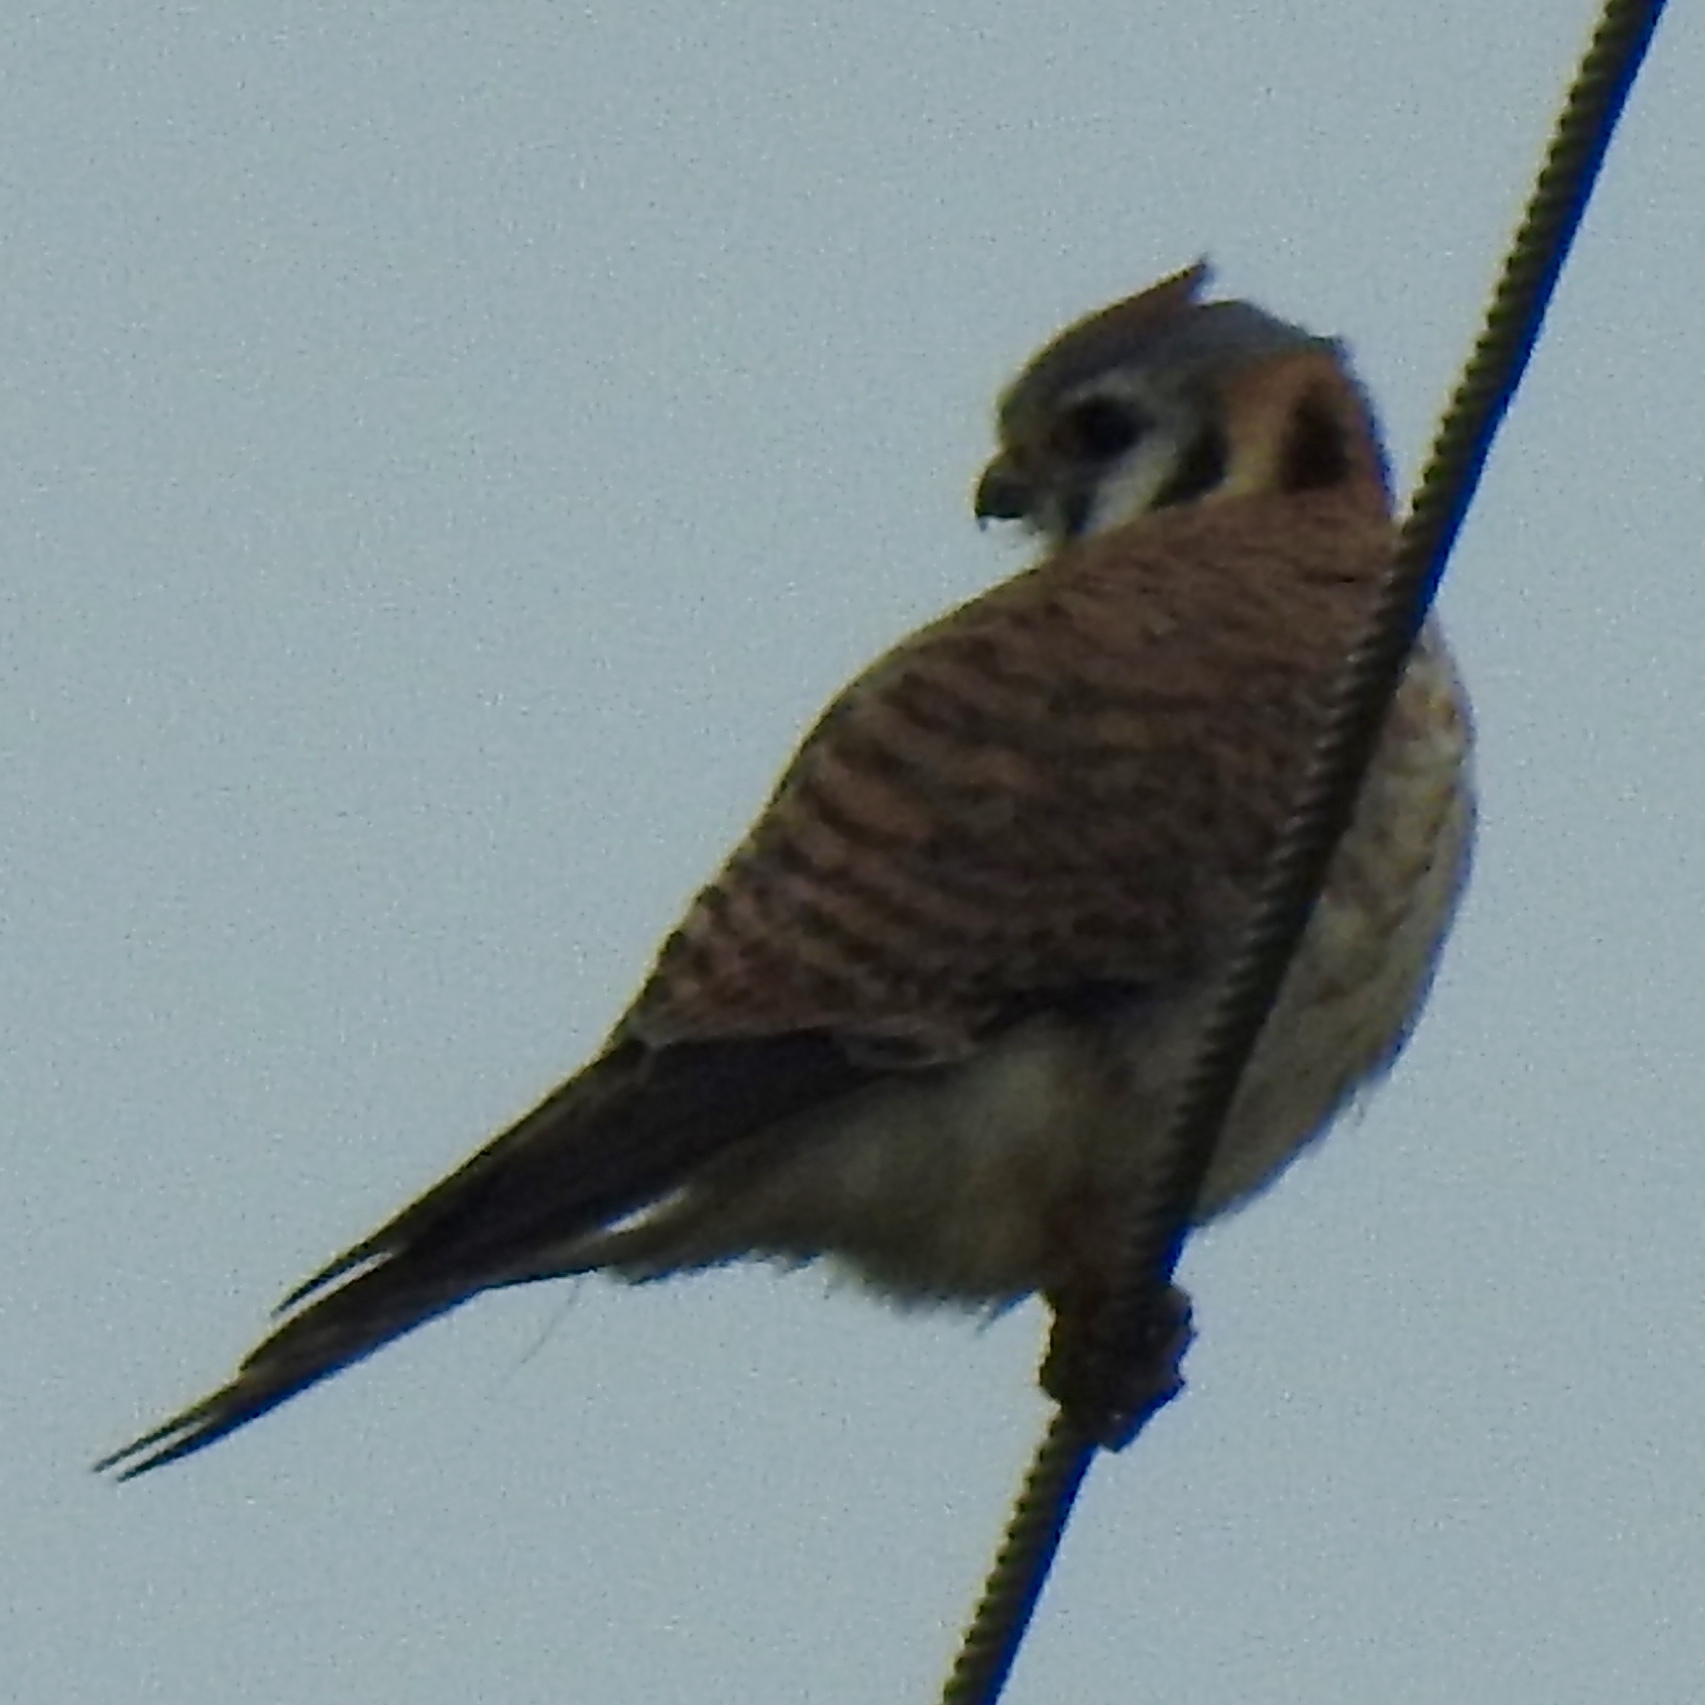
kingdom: Animalia
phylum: Chordata
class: Aves
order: Falconiformes
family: Falconidae
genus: Falco
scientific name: Falco sparverius
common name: American kestrel
